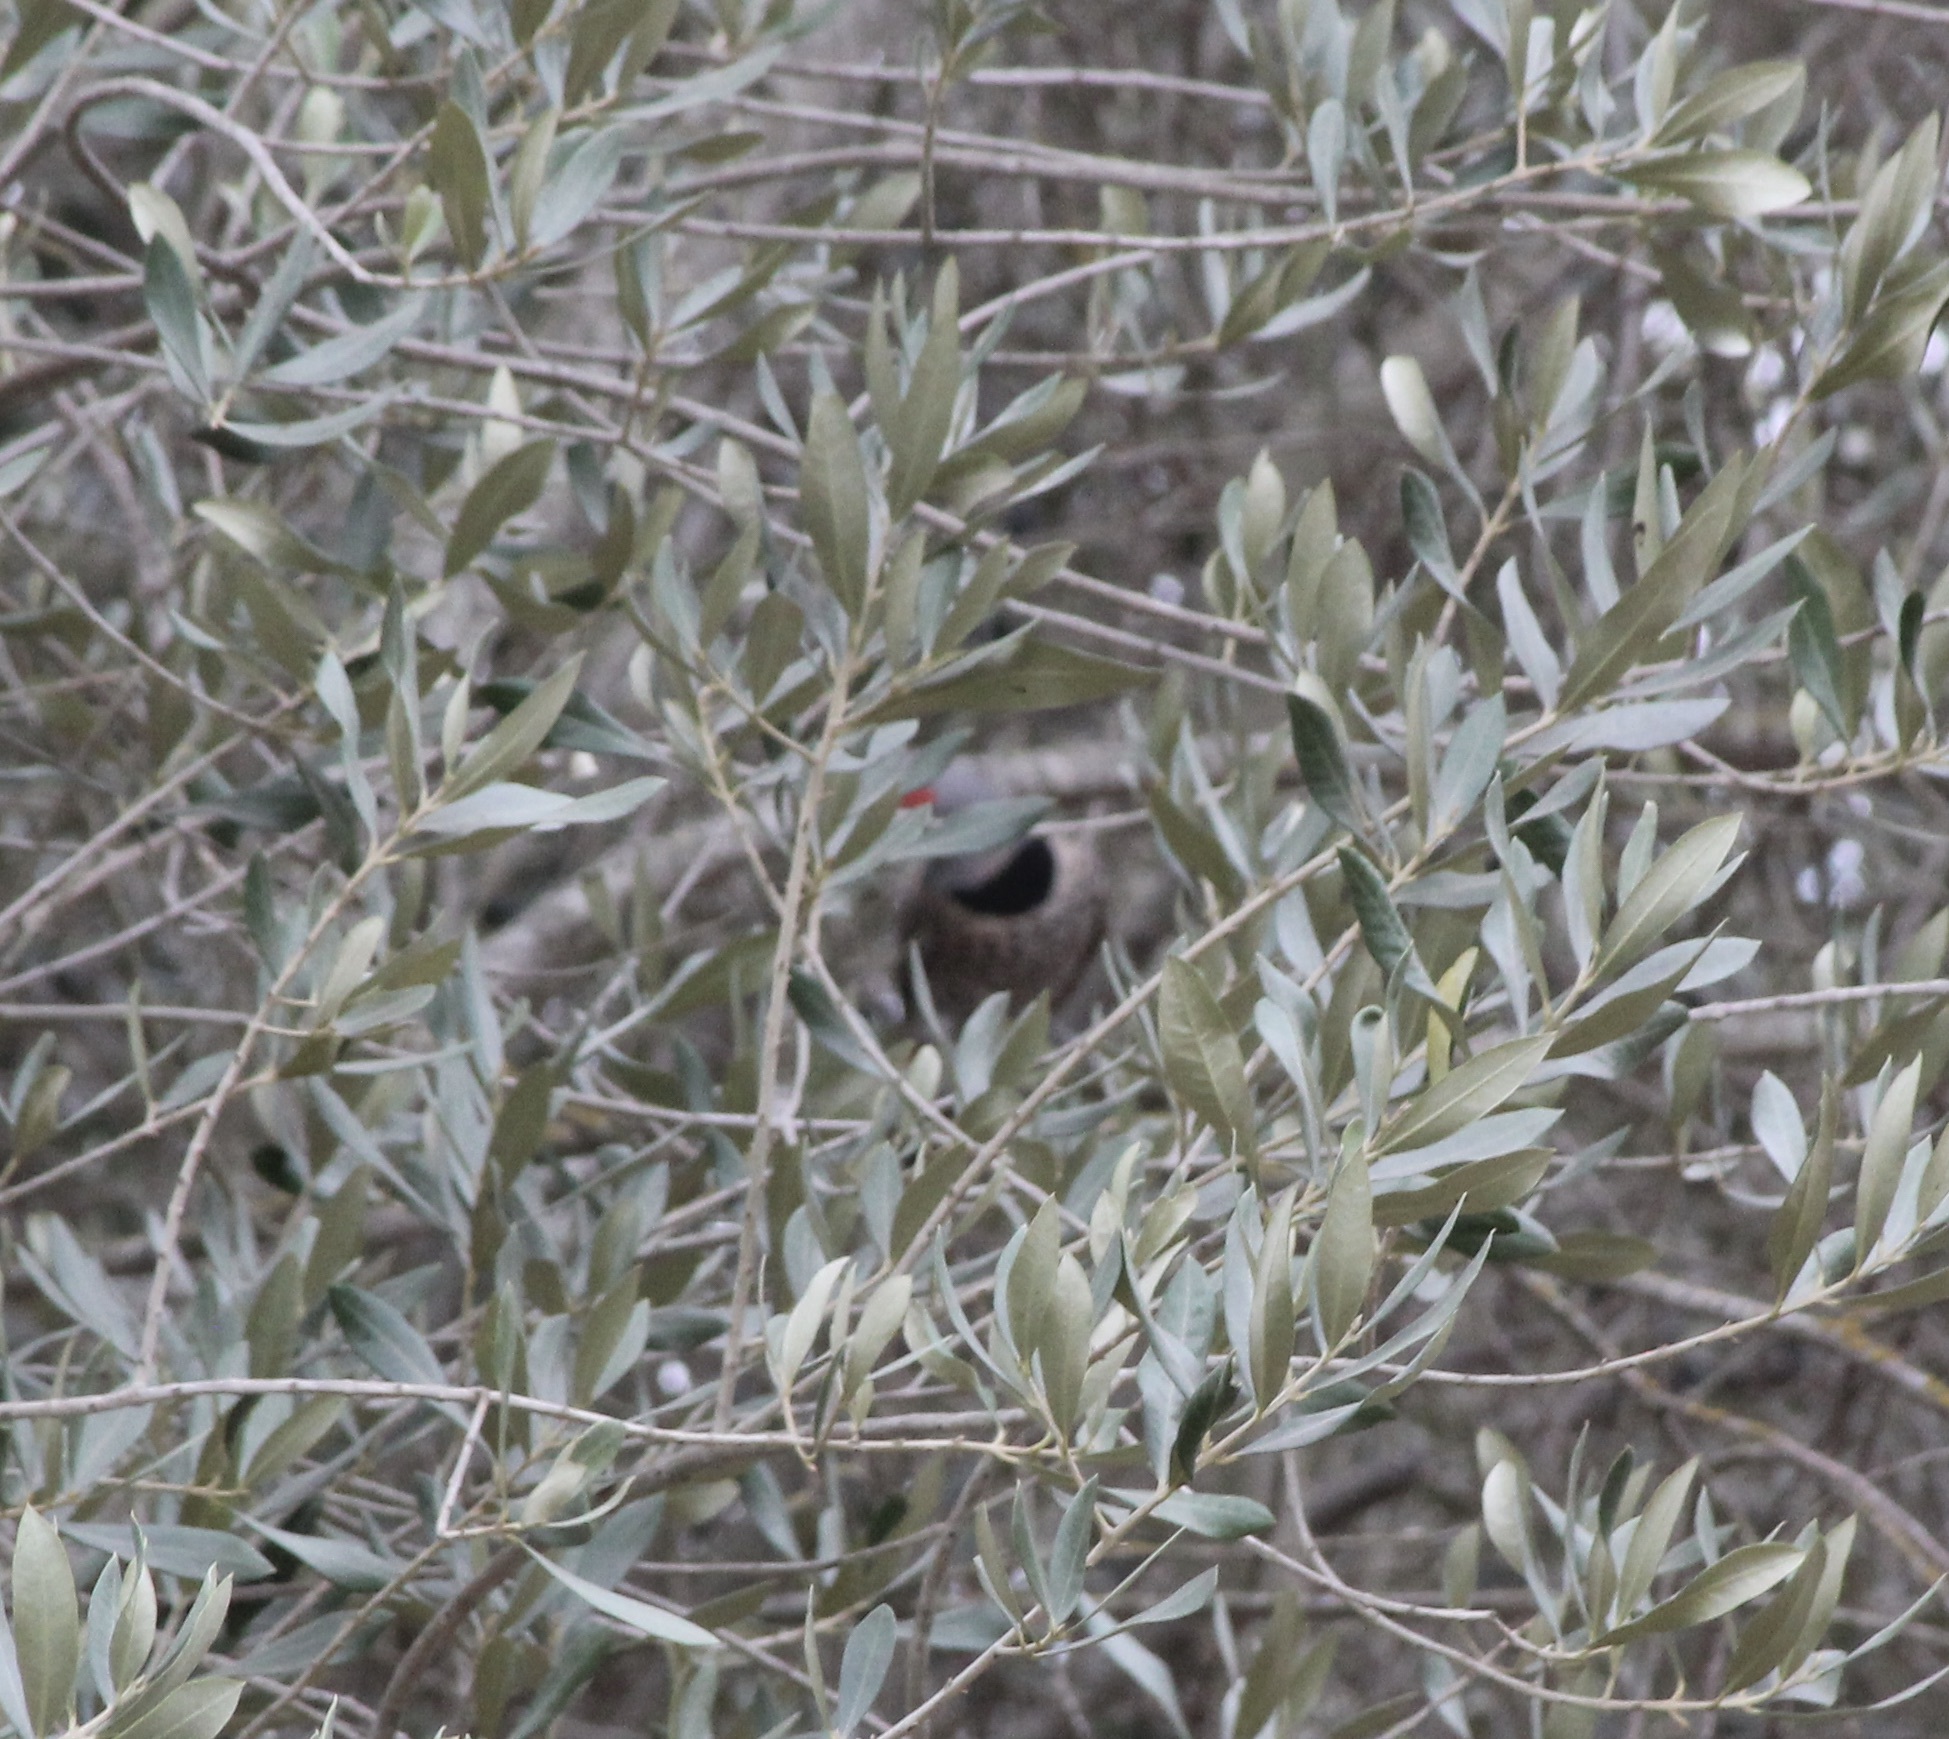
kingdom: Animalia
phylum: Chordata
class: Aves
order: Piciformes
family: Picidae
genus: Colaptes
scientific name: Colaptes auratus
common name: Northern flicker
